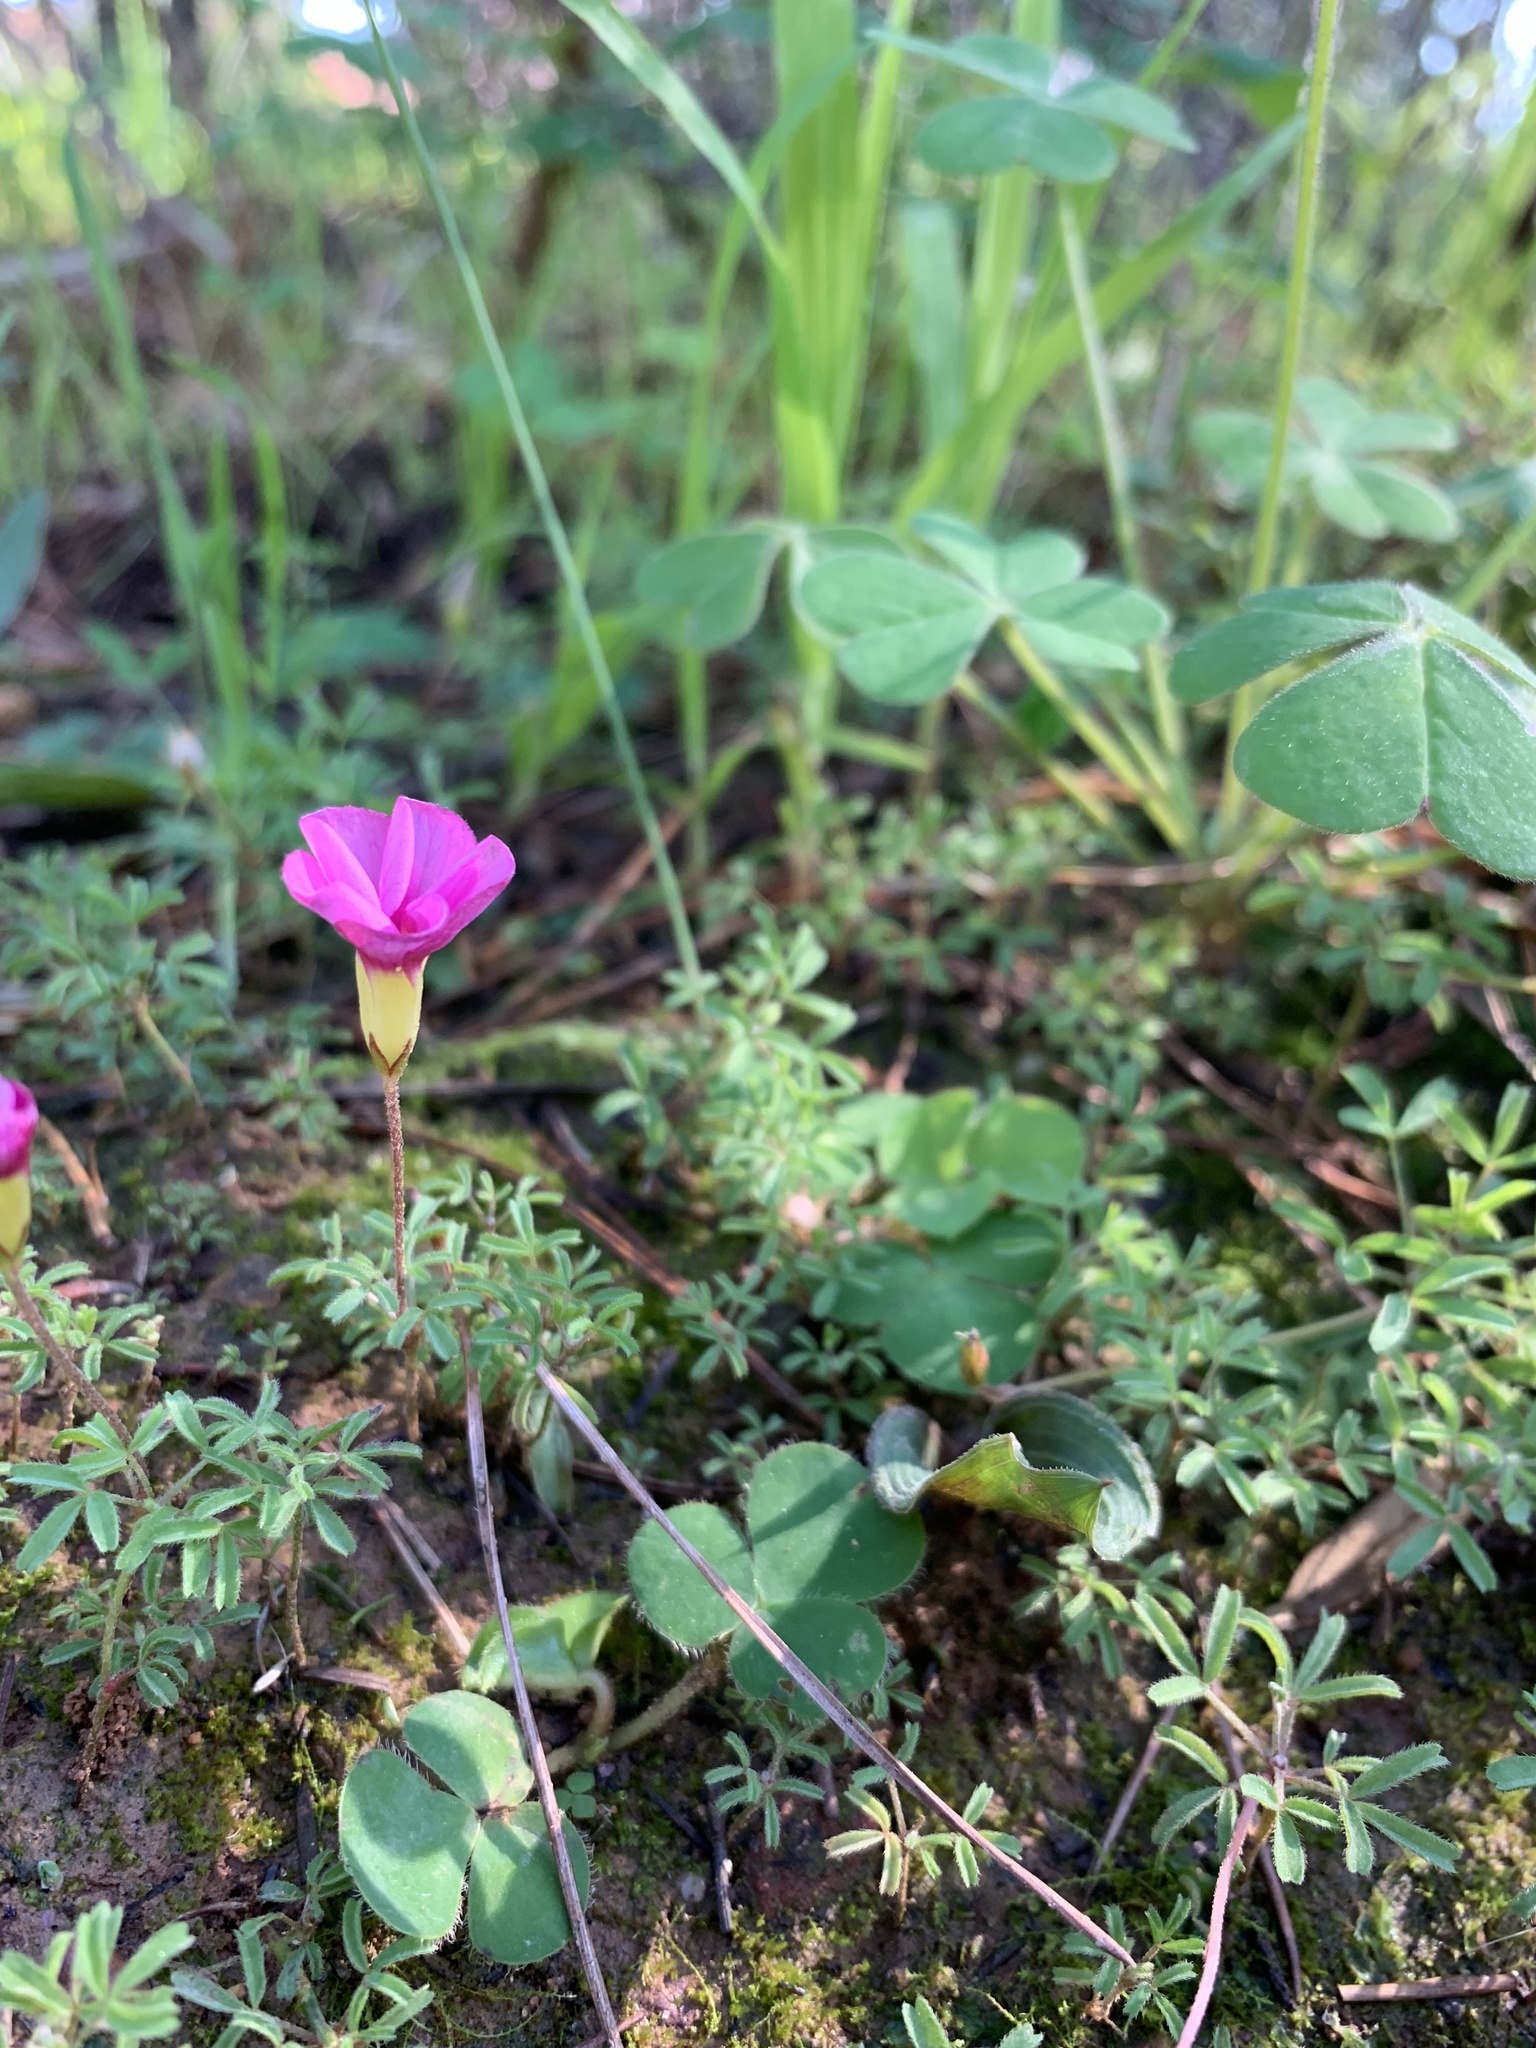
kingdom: Plantae
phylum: Tracheophyta
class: Magnoliopsida
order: Oxalidales
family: Oxalidaceae
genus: Oxalis
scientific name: Oxalis glabra
